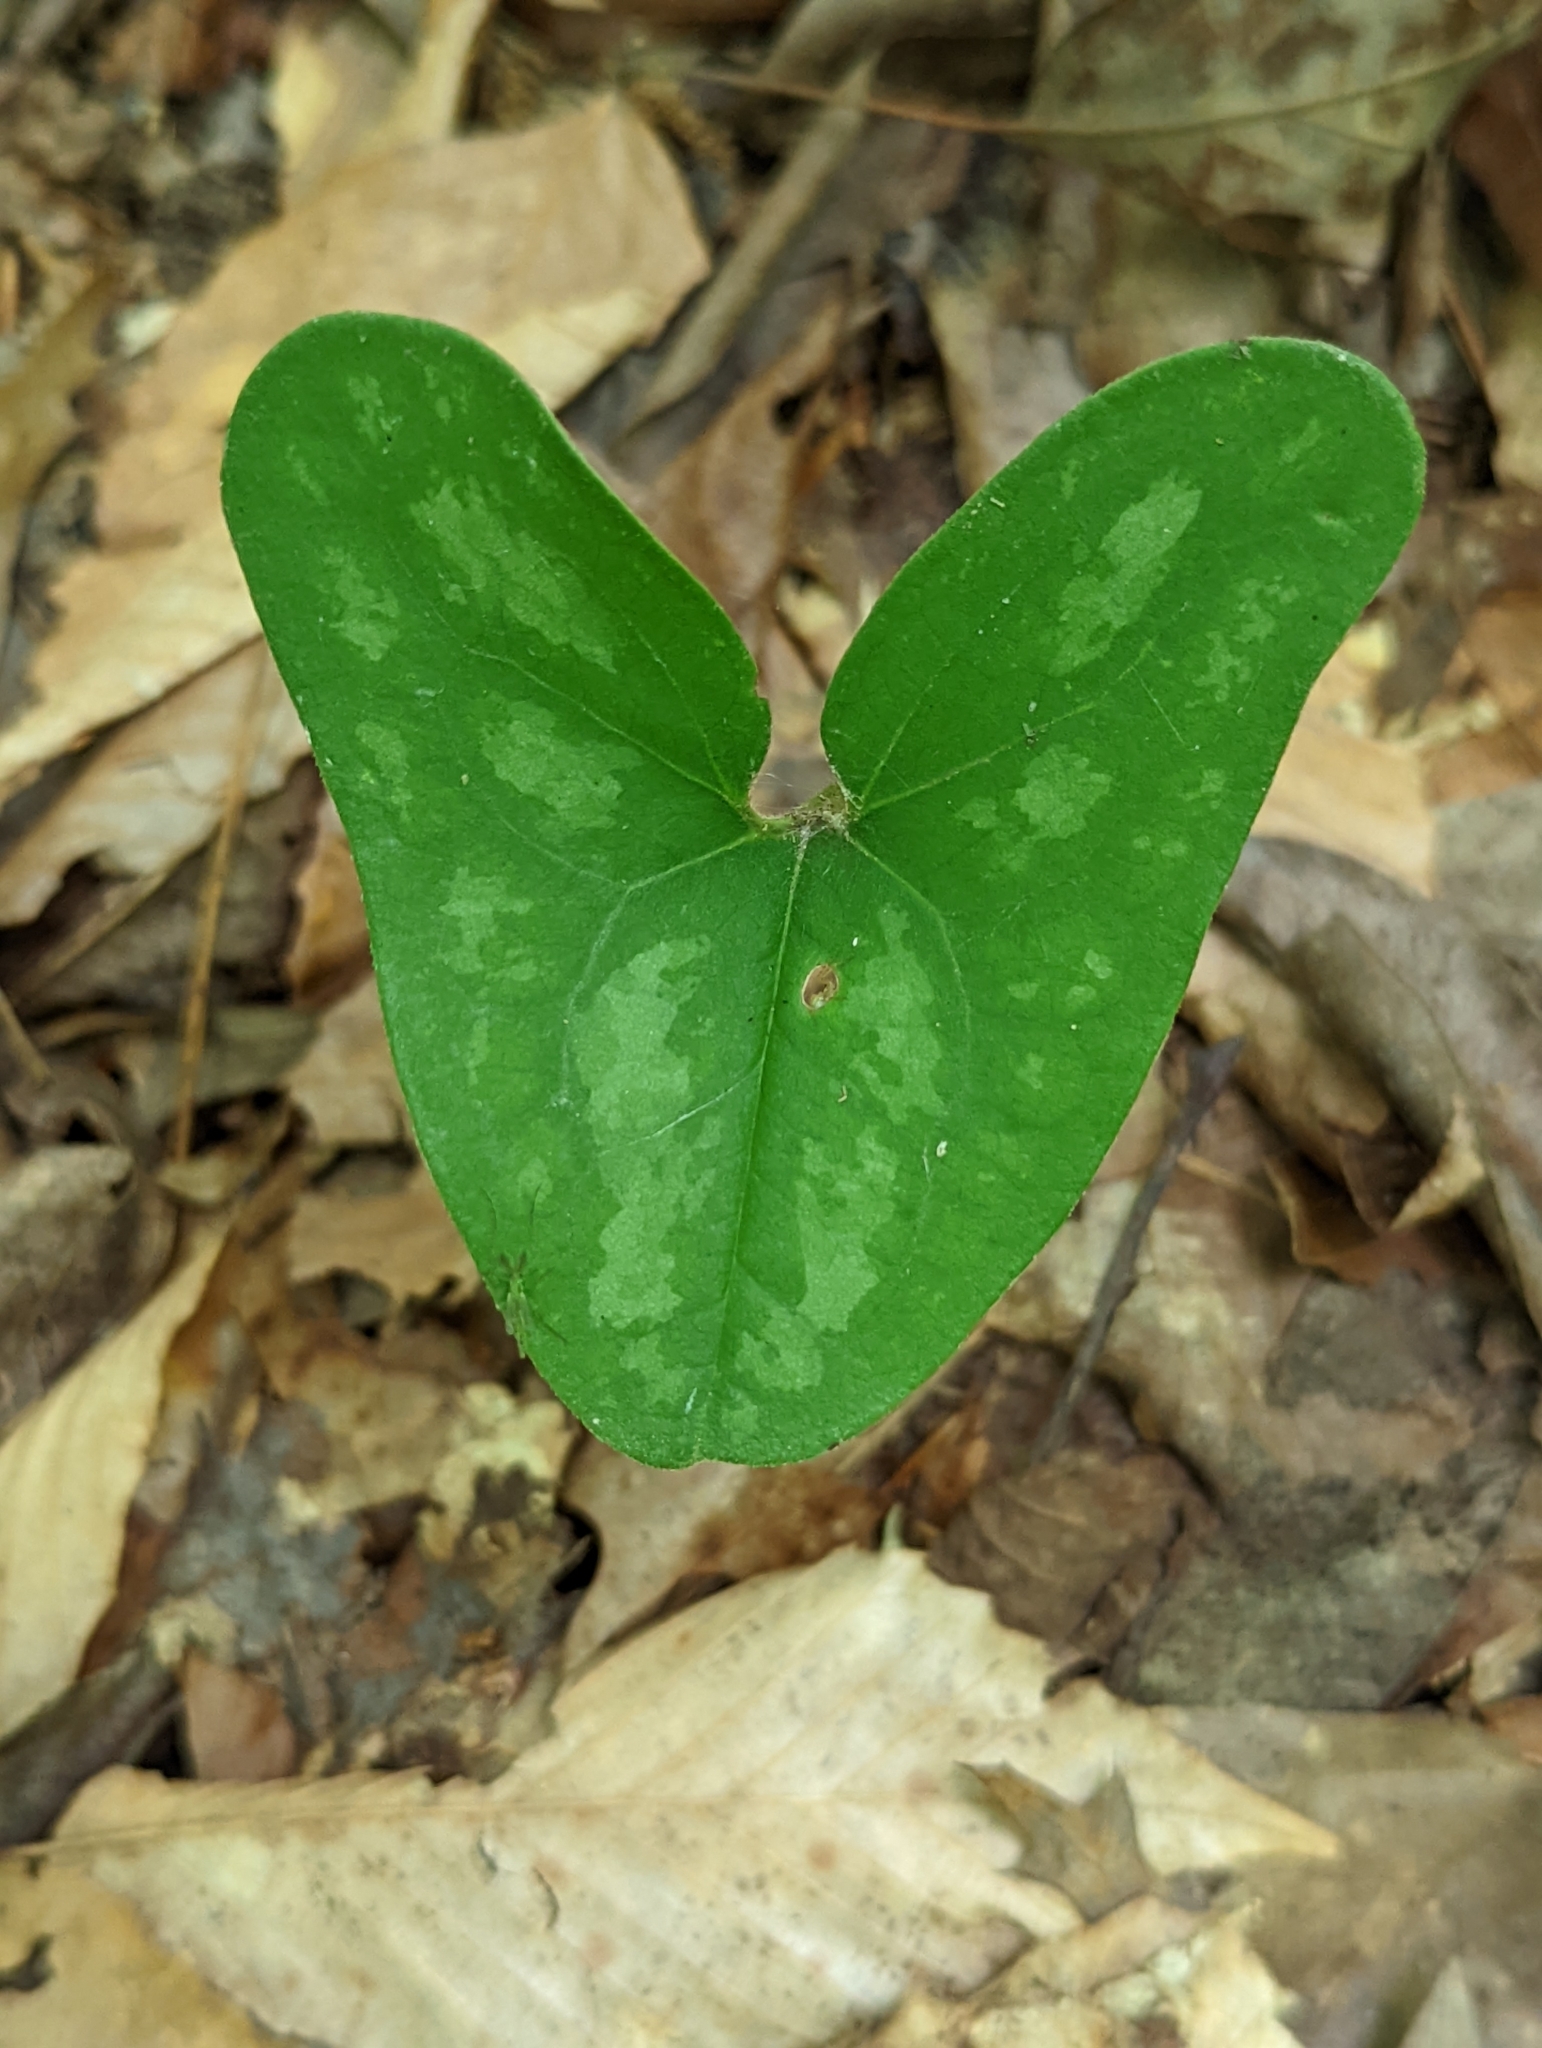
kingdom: Plantae
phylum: Tracheophyta
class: Magnoliopsida
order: Piperales
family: Aristolochiaceae
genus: Hexastylis
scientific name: Hexastylis arifolia
